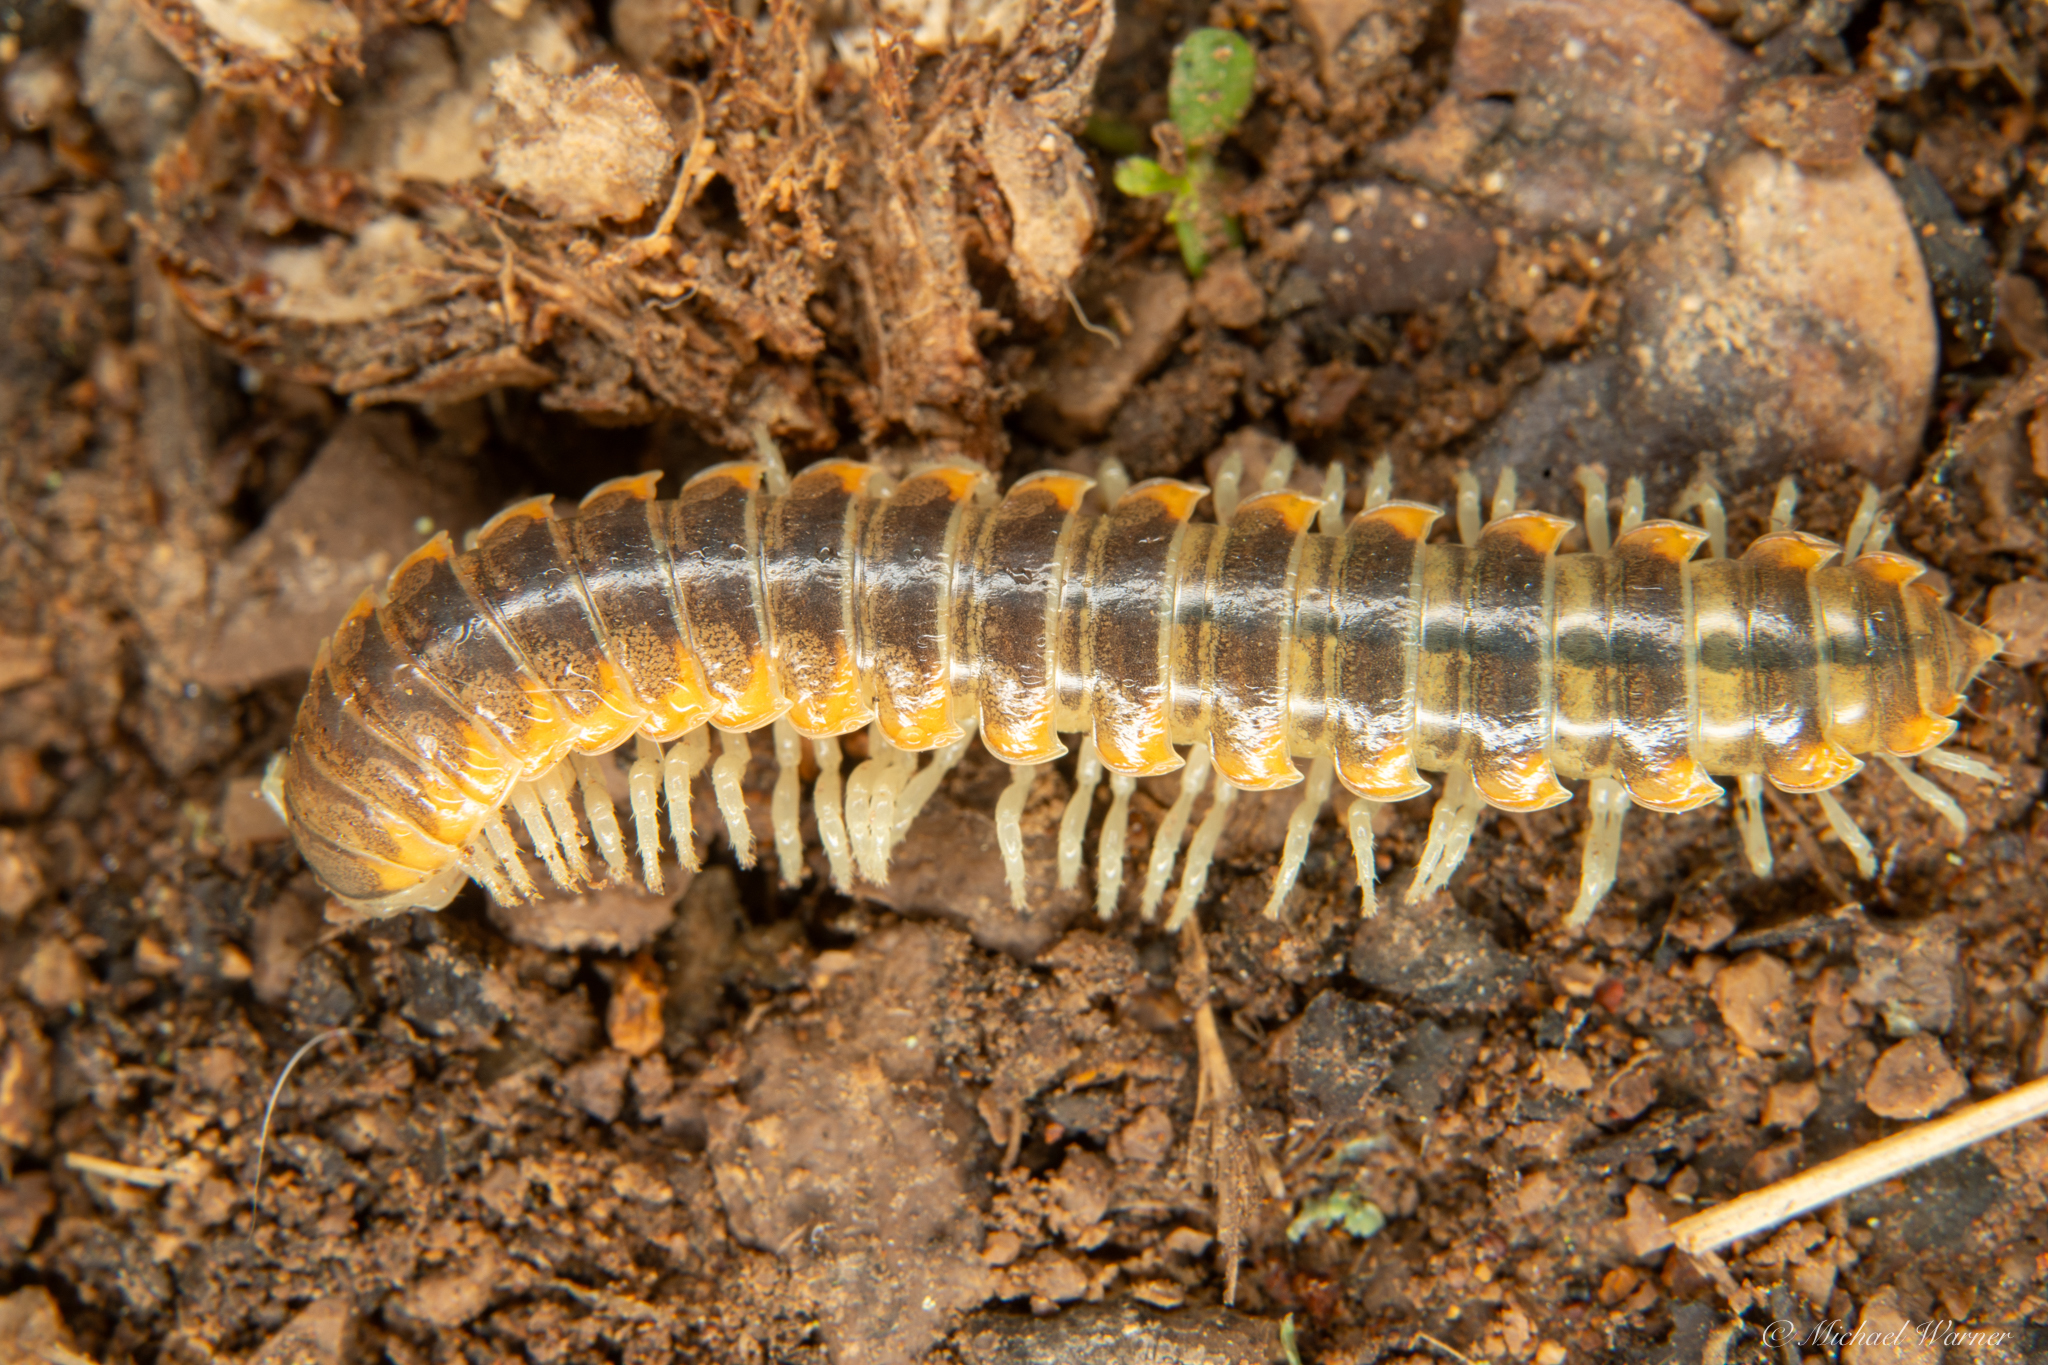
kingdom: Animalia
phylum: Arthropoda
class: Diplopoda
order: Polydesmida
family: Xystodesmidae
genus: Xystocheir
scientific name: Xystocheir dissecta
